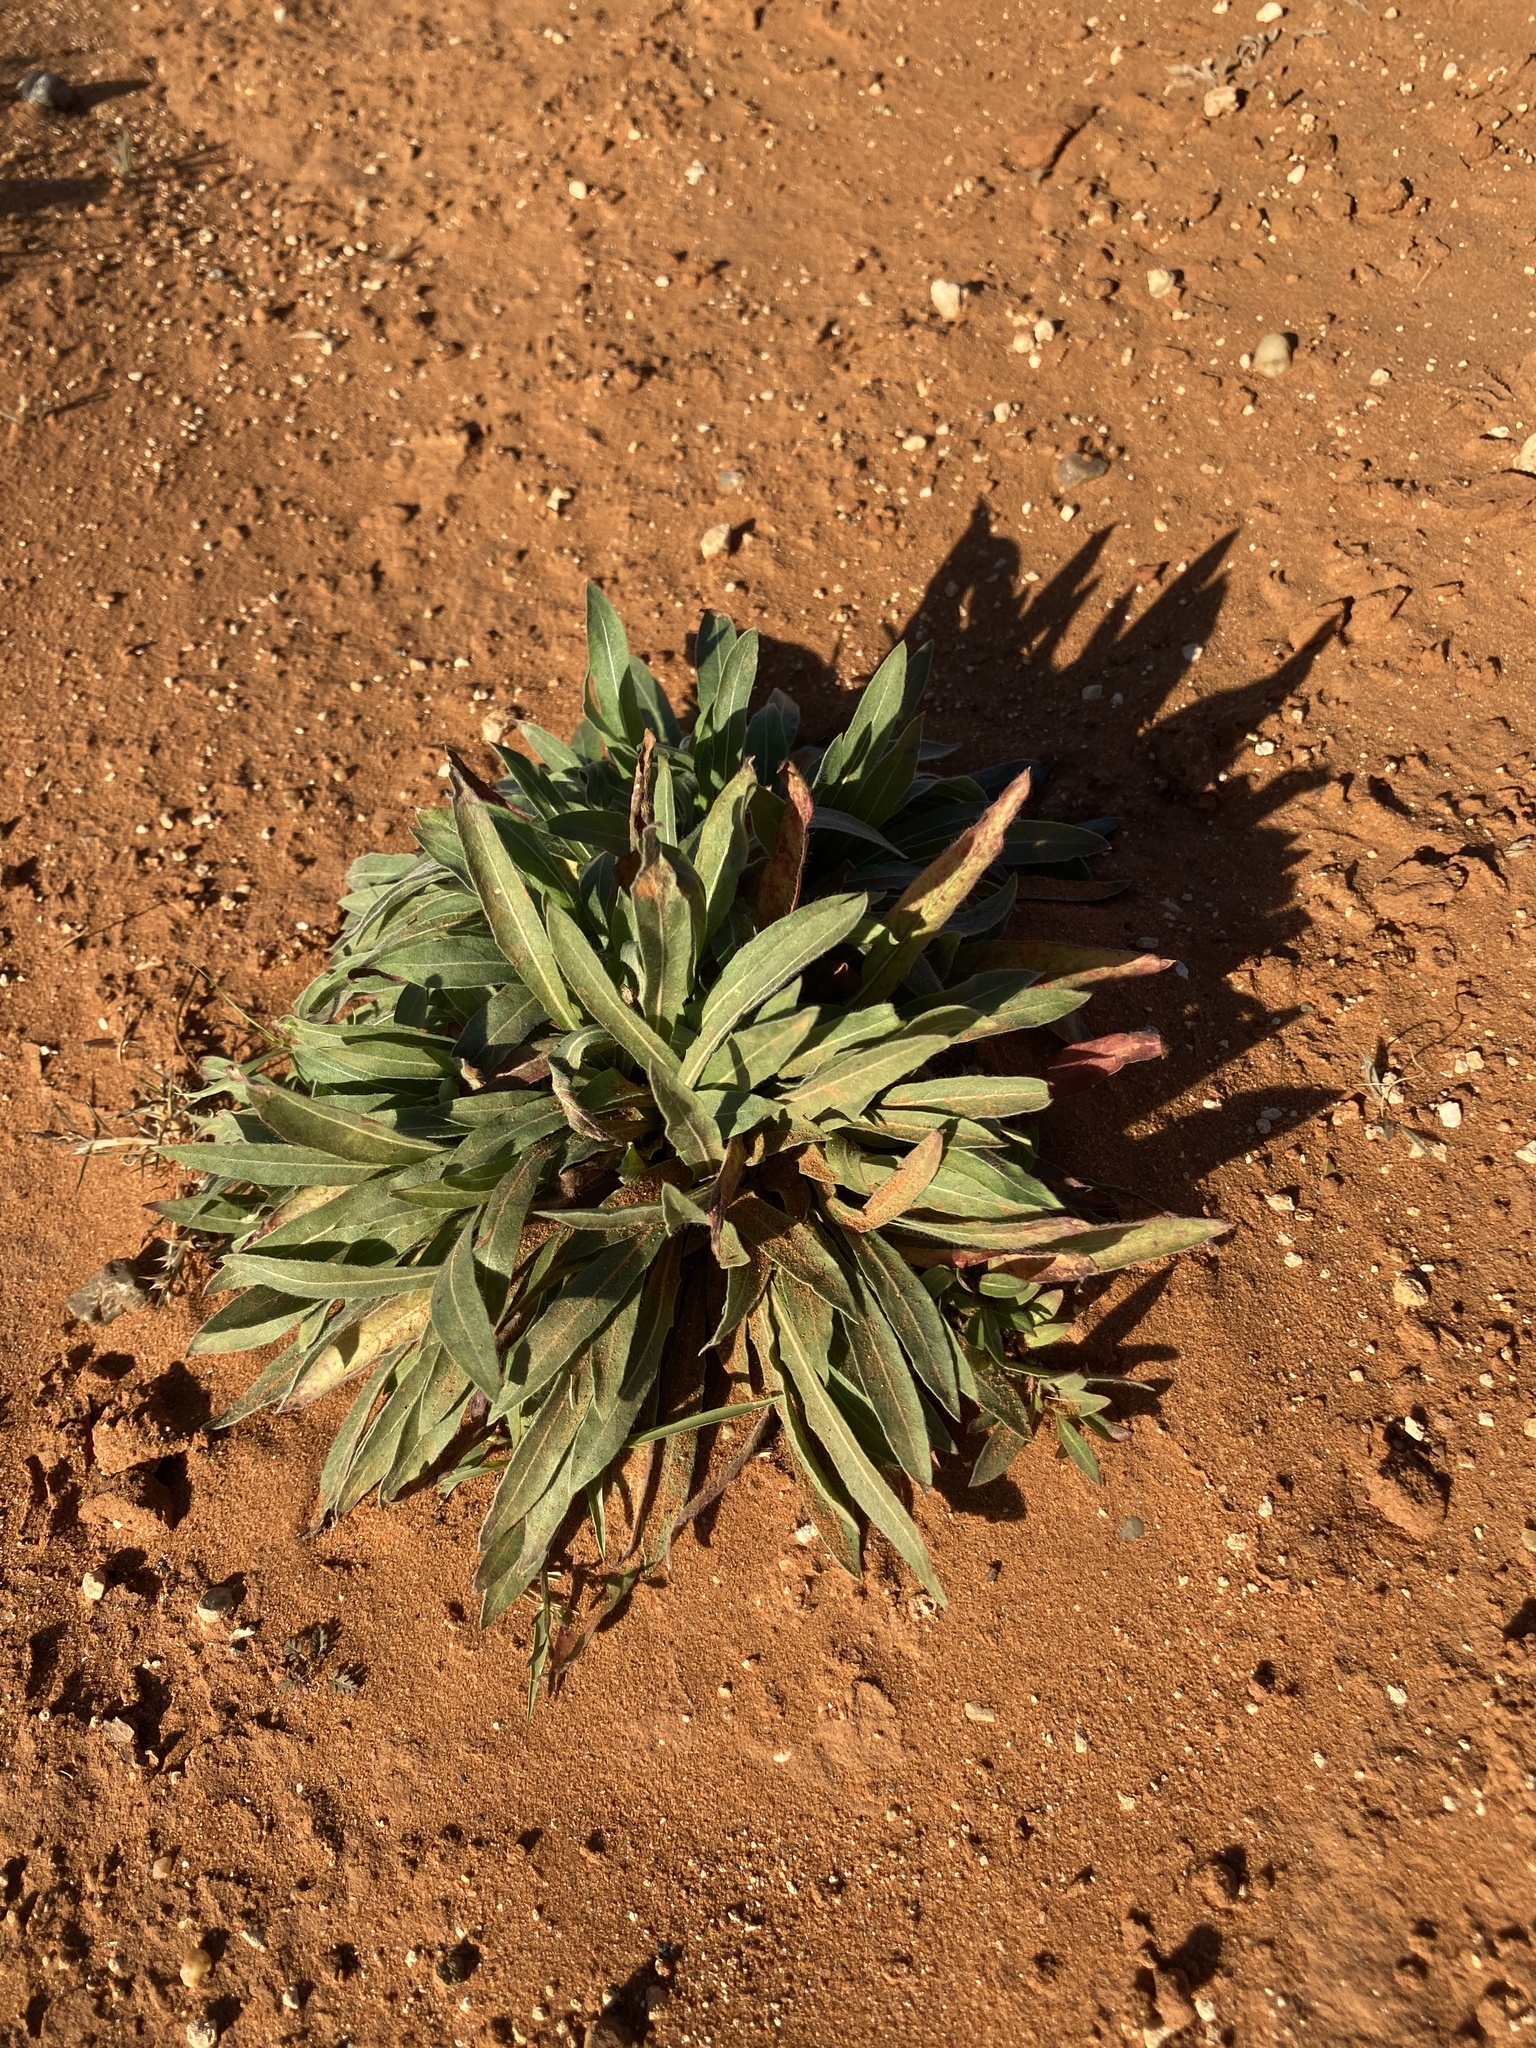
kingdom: Plantae
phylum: Tracheophyta
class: Magnoliopsida
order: Myrtales
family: Onagraceae
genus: Oenothera
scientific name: Oenothera cinerea
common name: Woolly beeblossom
